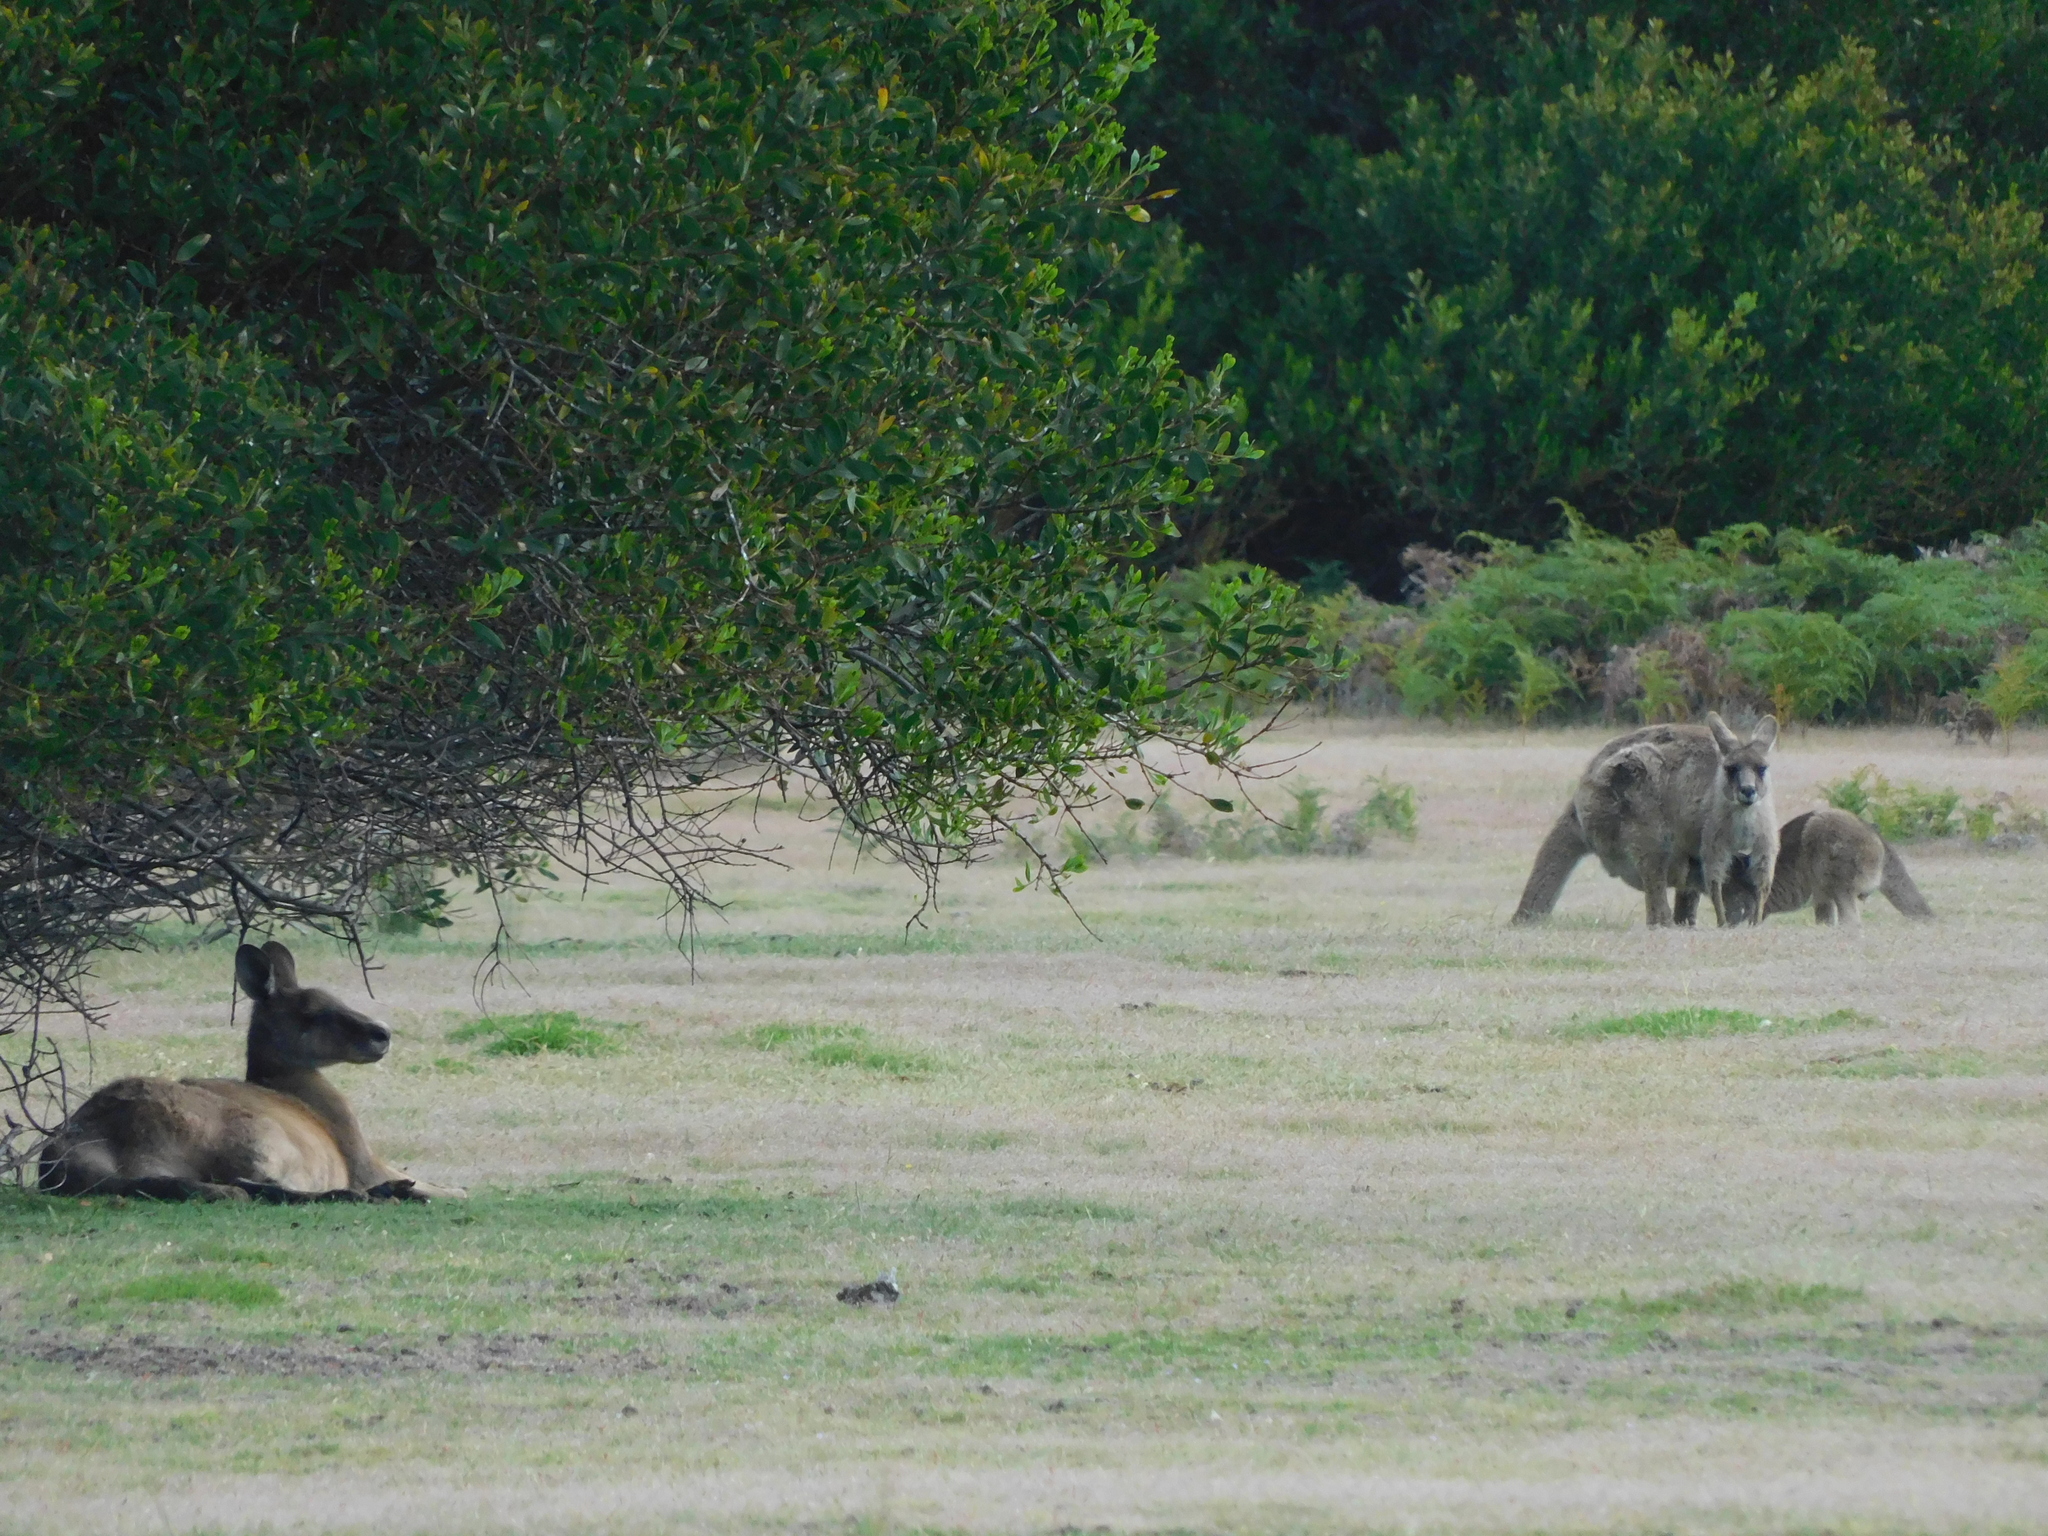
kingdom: Animalia
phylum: Chordata
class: Mammalia
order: Diprotodontia
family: Macropodidae
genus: Macropus
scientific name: Macropus giganteus
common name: Eastern grey kangaroo
